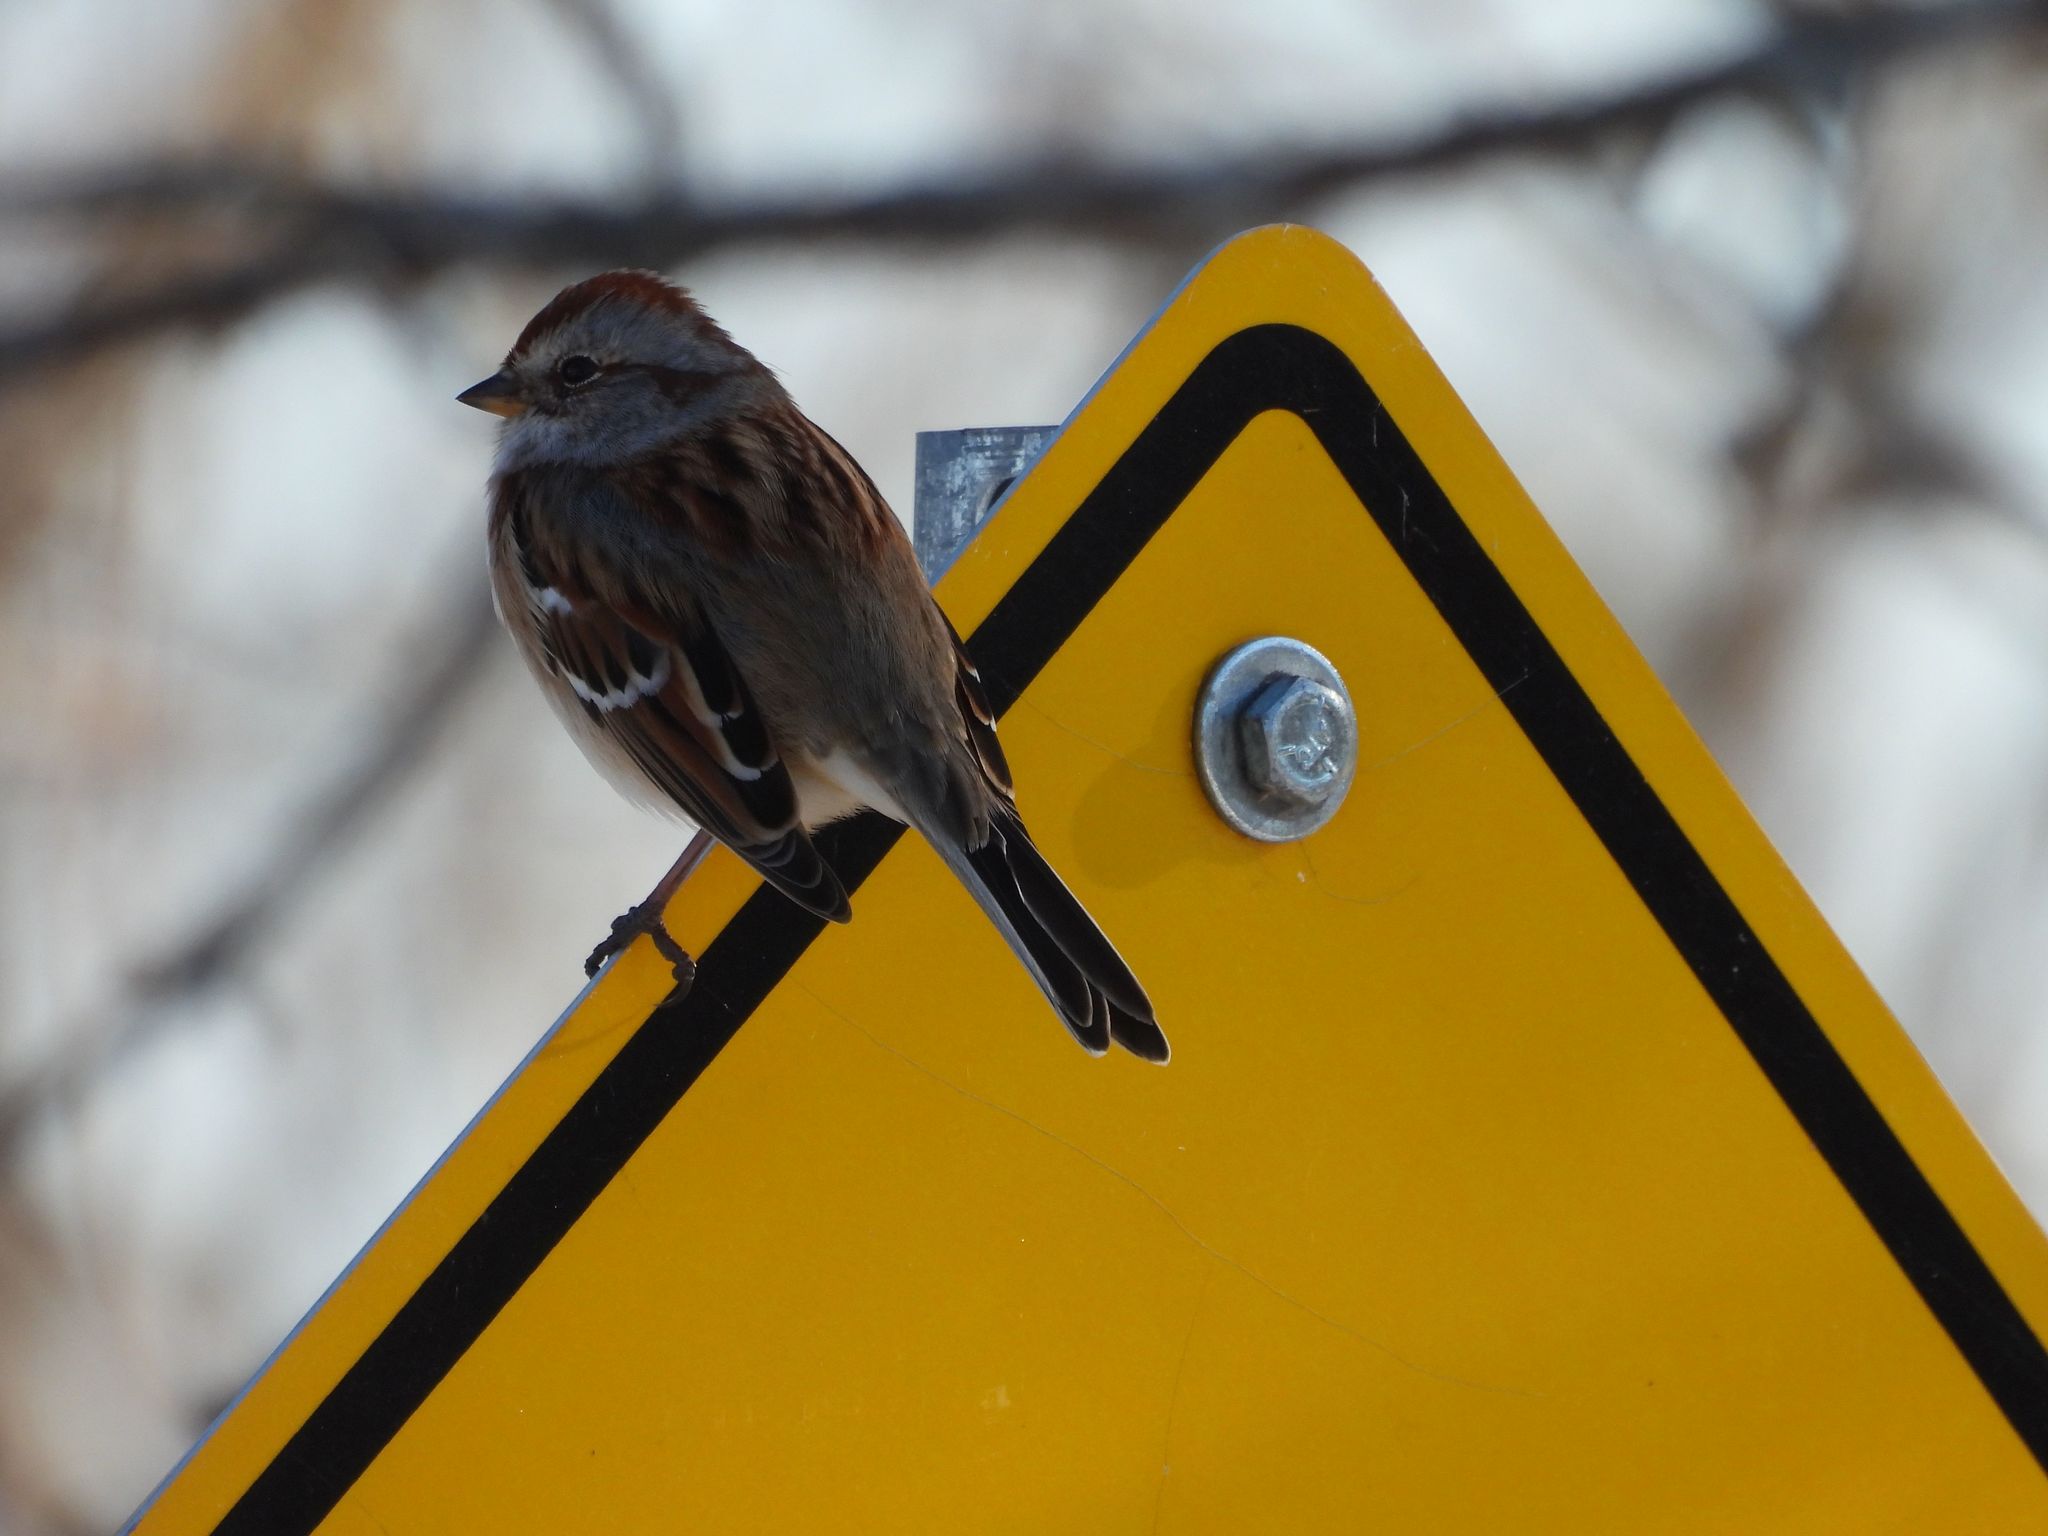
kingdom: Animalia
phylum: Chordata
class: Aves
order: Passeriformes
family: Passerellidae
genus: Spizelloides
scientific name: Spizelloides arborea
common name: American tree sparrow
